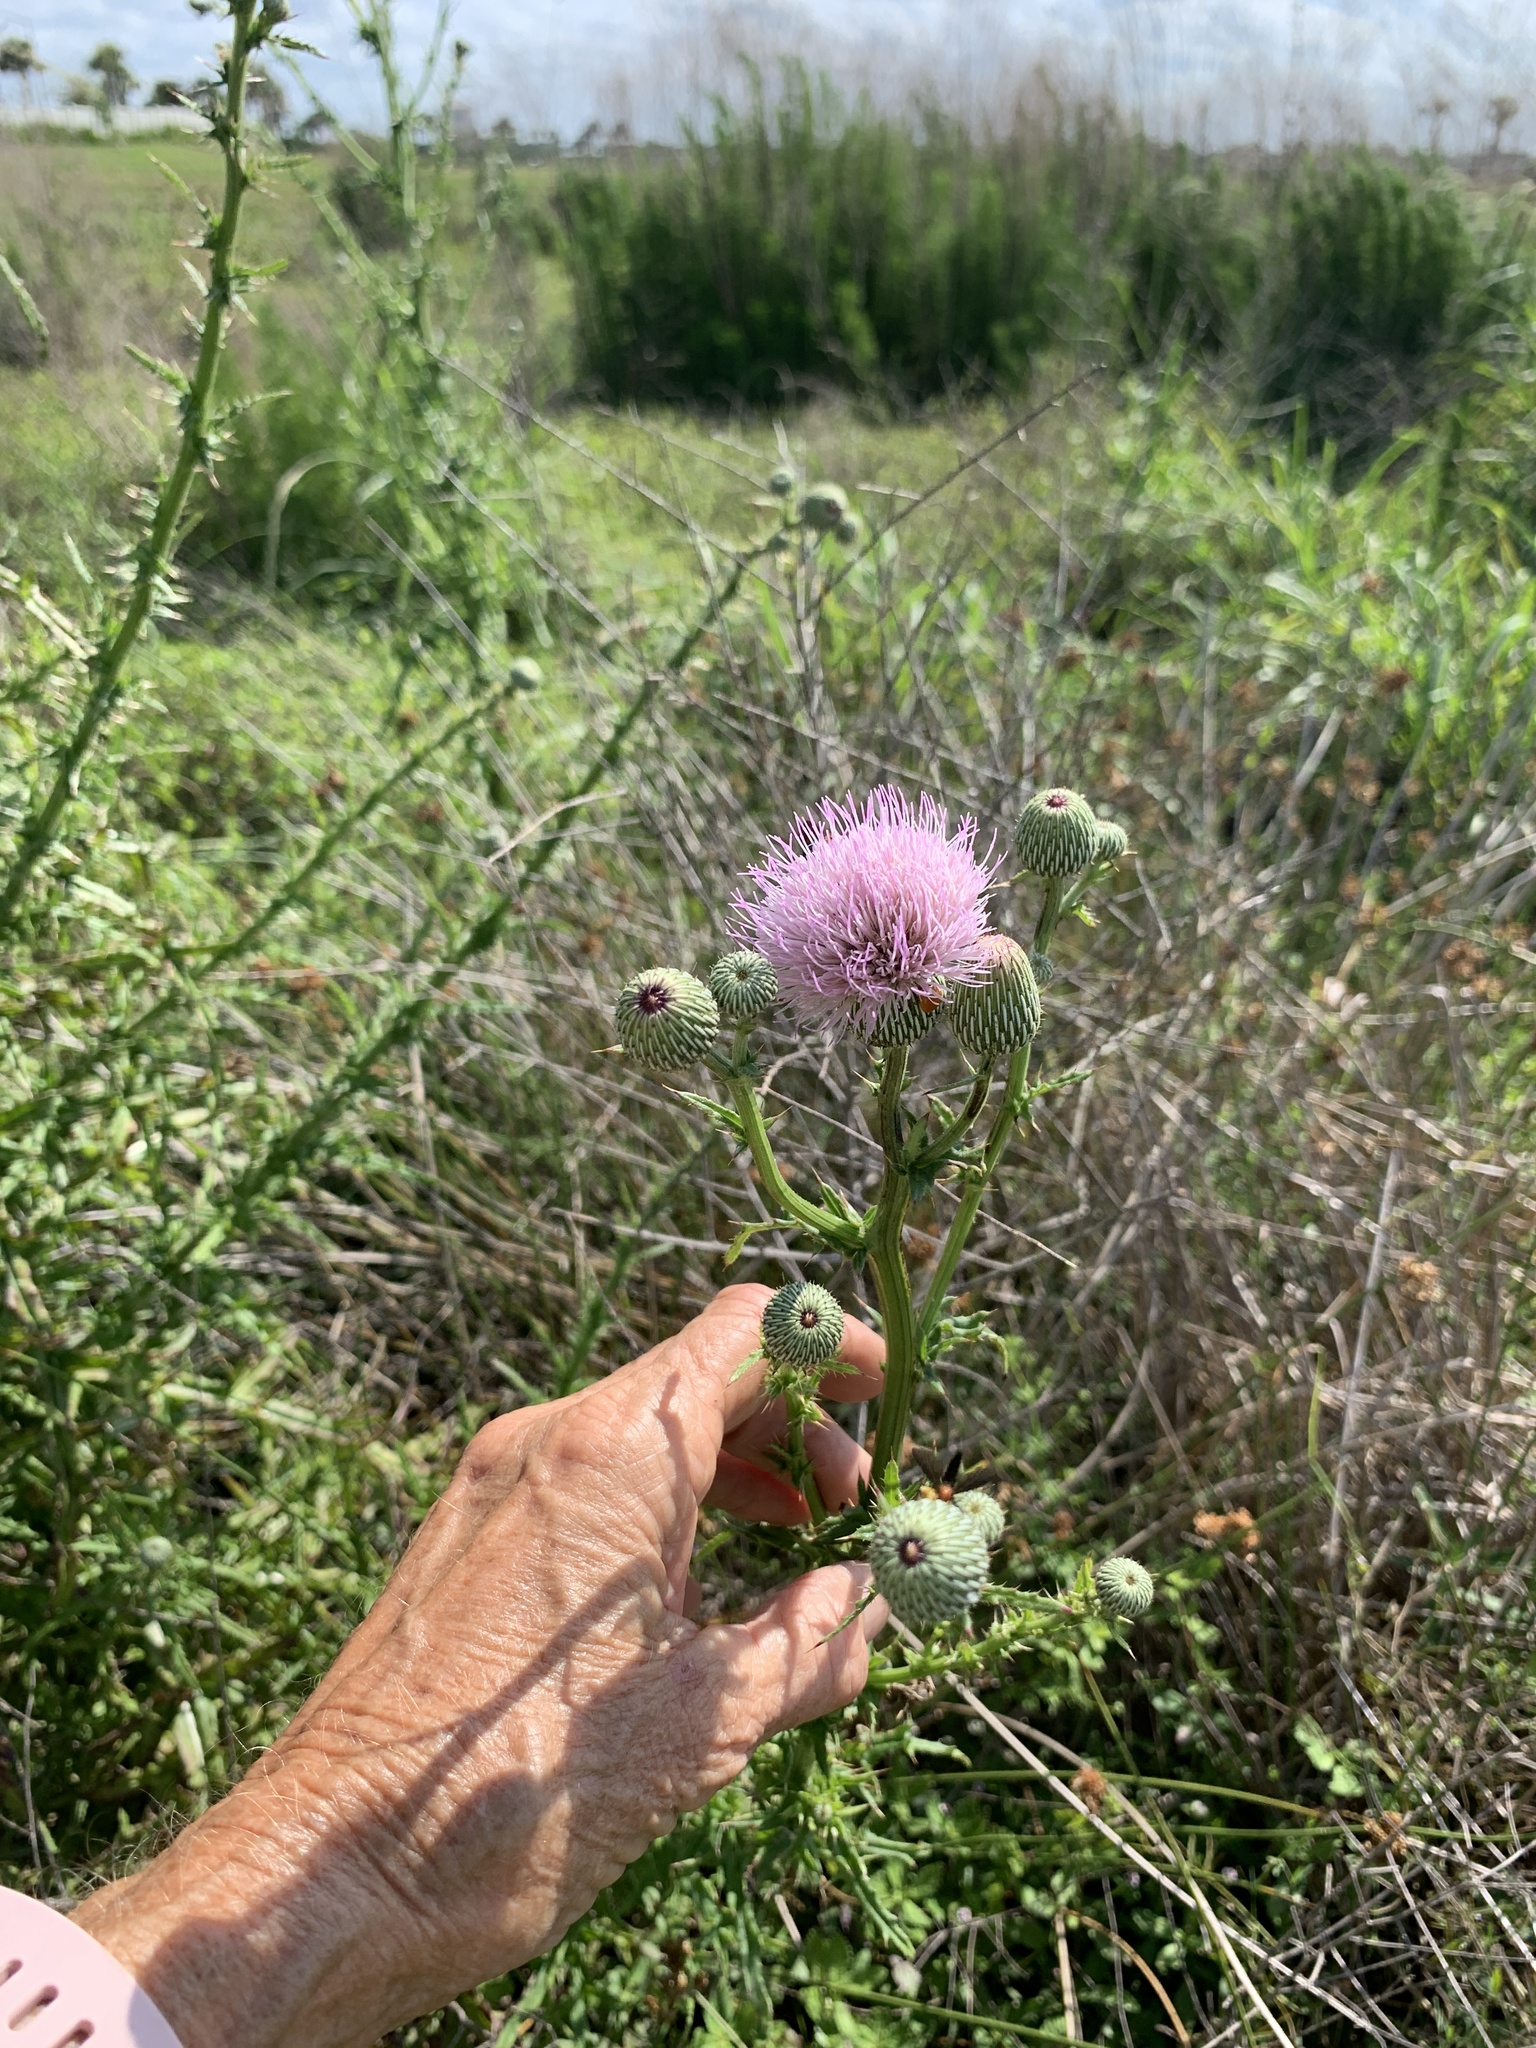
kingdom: Plantae
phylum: Tracheophyta
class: Magnoliopsida
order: Asterales
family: Asteraceae
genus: Cirsium
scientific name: Cirsium nuttalii
